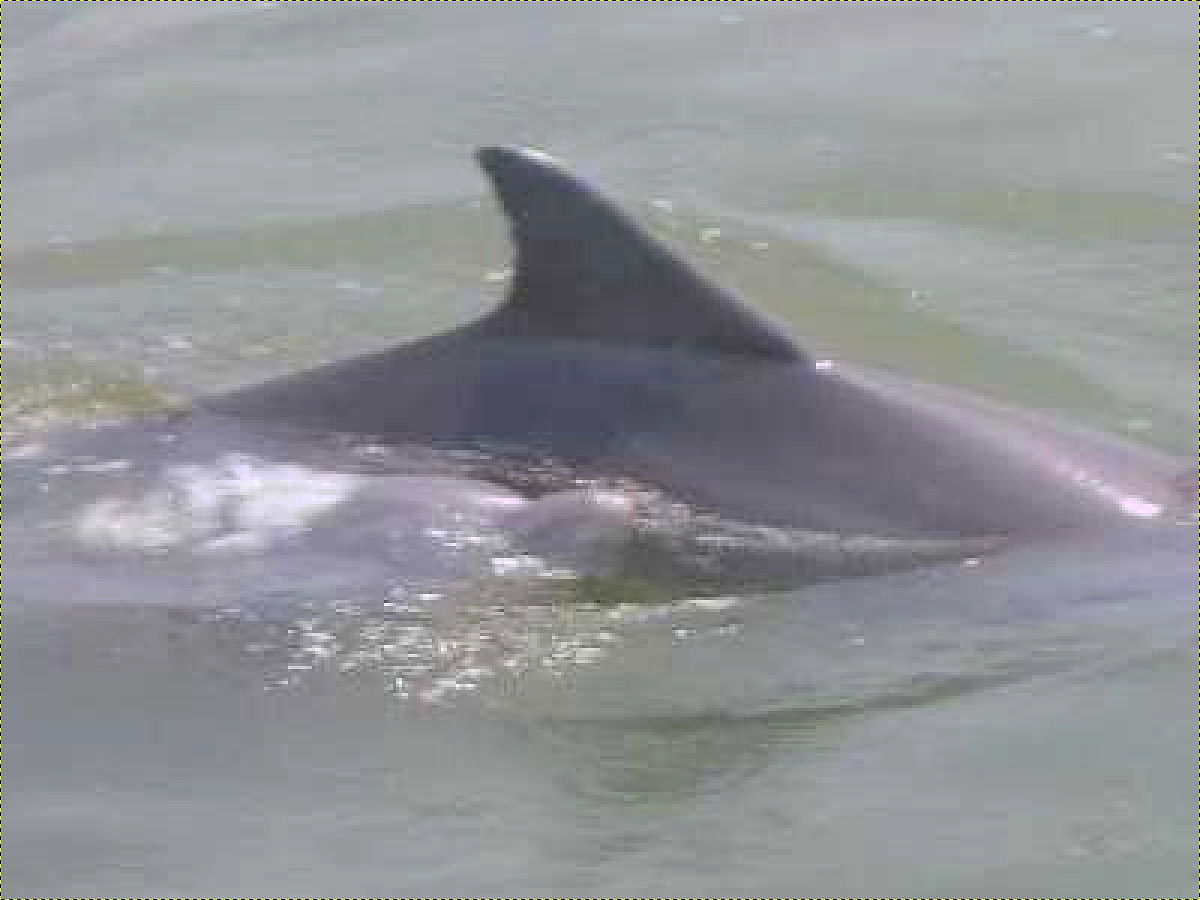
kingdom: Animalia
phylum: Chordata
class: Mammalia
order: Cetacea
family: Delphinidae
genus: Tursiops
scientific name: Tursiops truncatus
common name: Bottlenose dolphin
